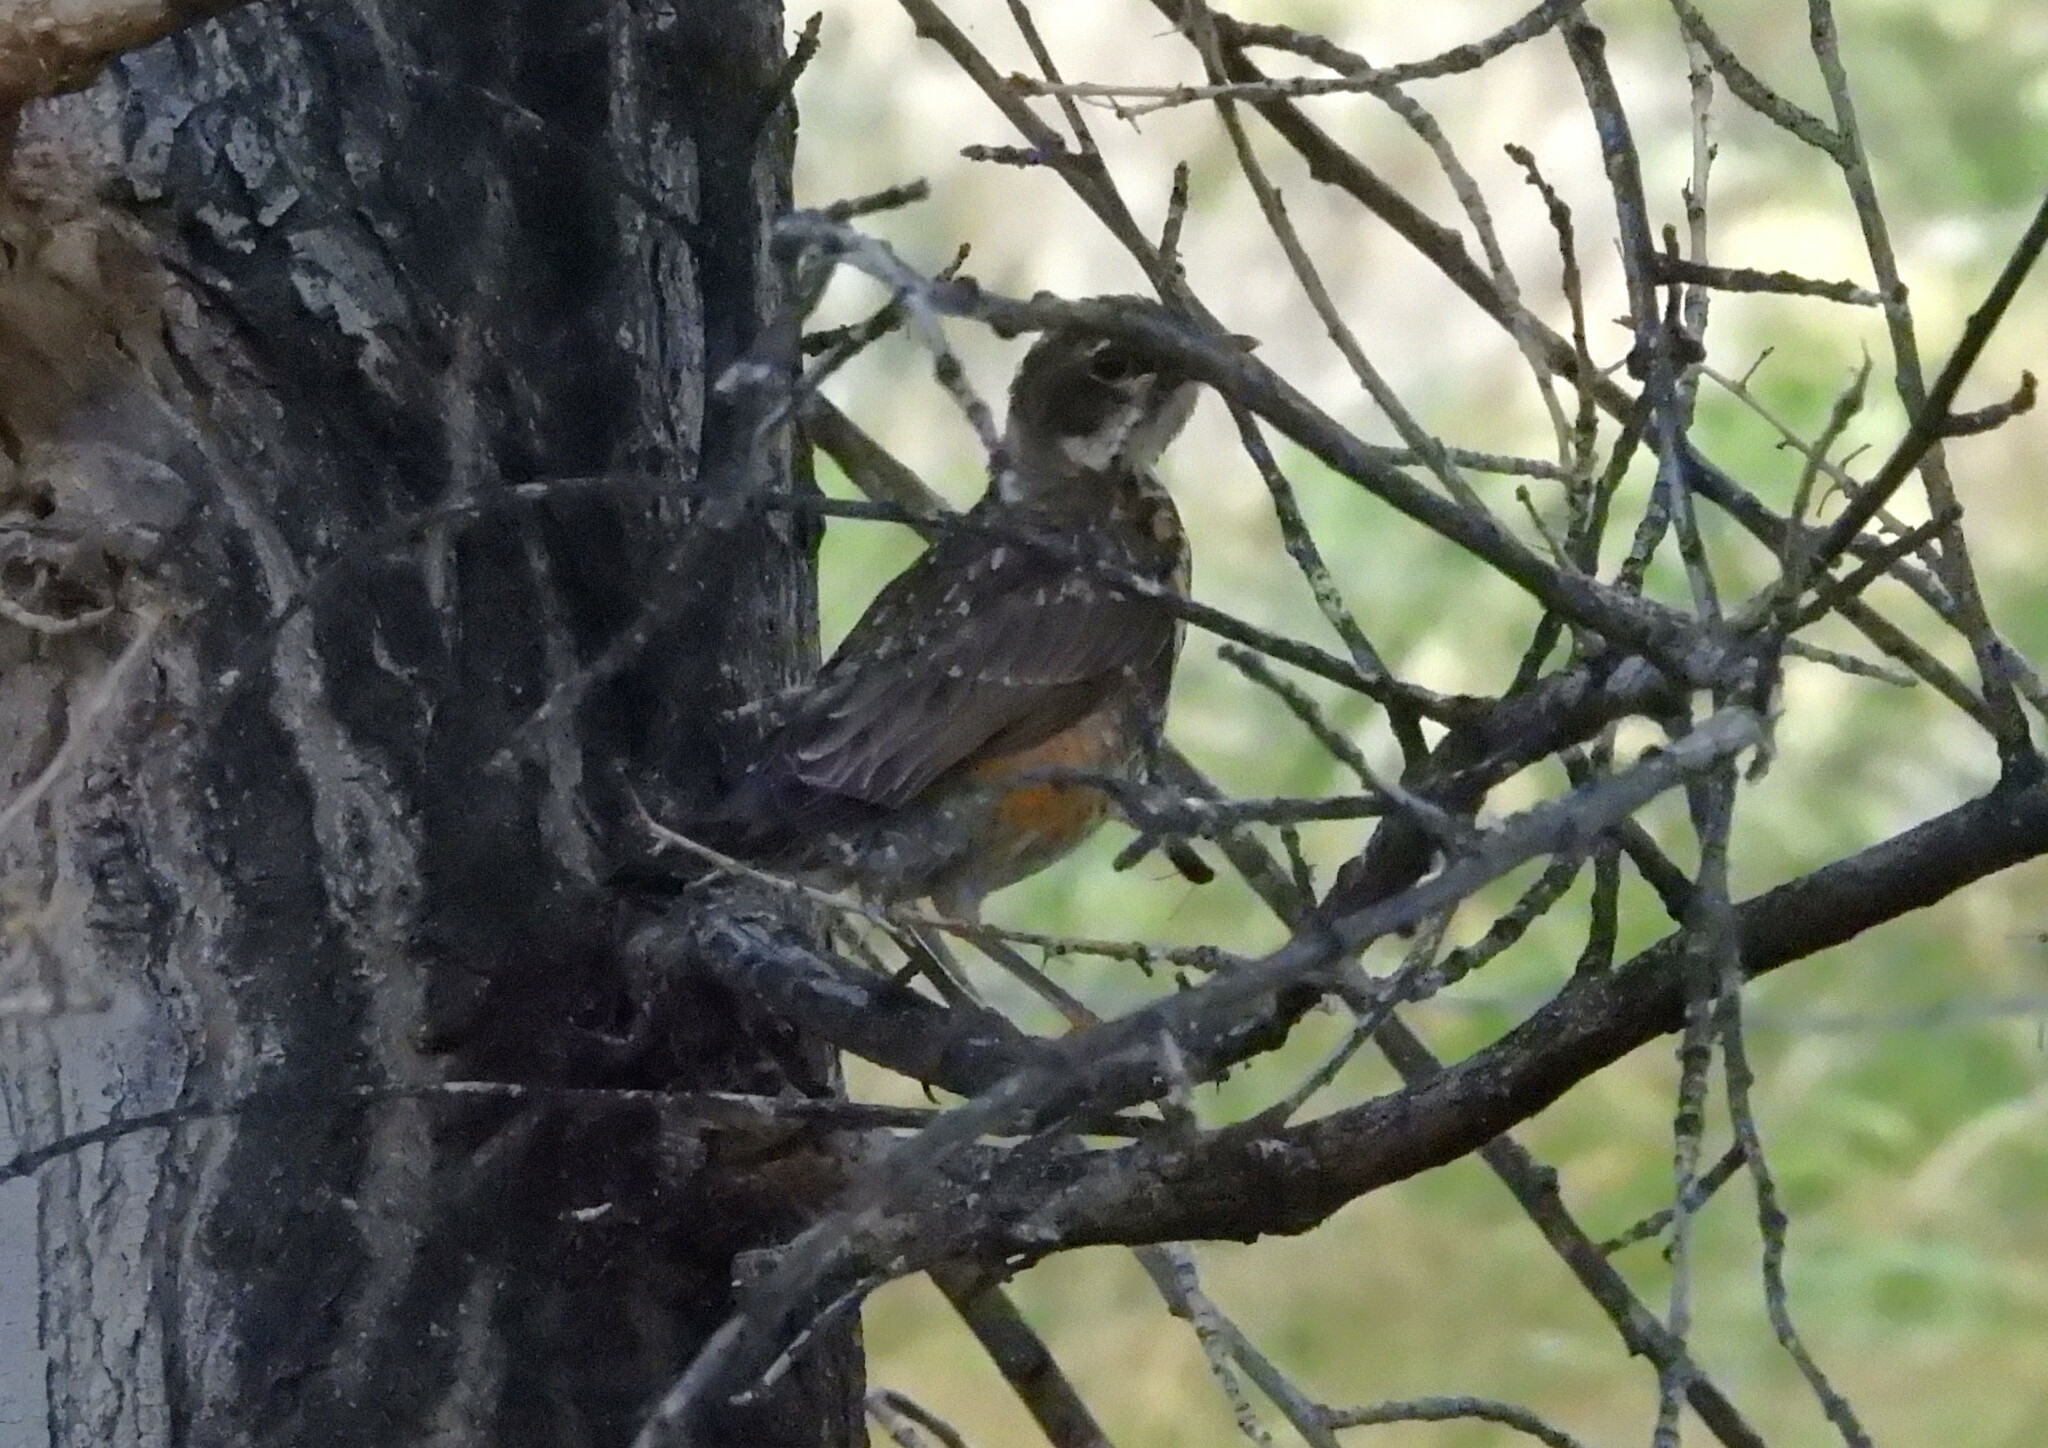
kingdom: Animalia
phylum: Chordata
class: Aves
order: Passeriformes
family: Turdidae
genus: Turdus
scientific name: Turdus migratorius
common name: American robin
